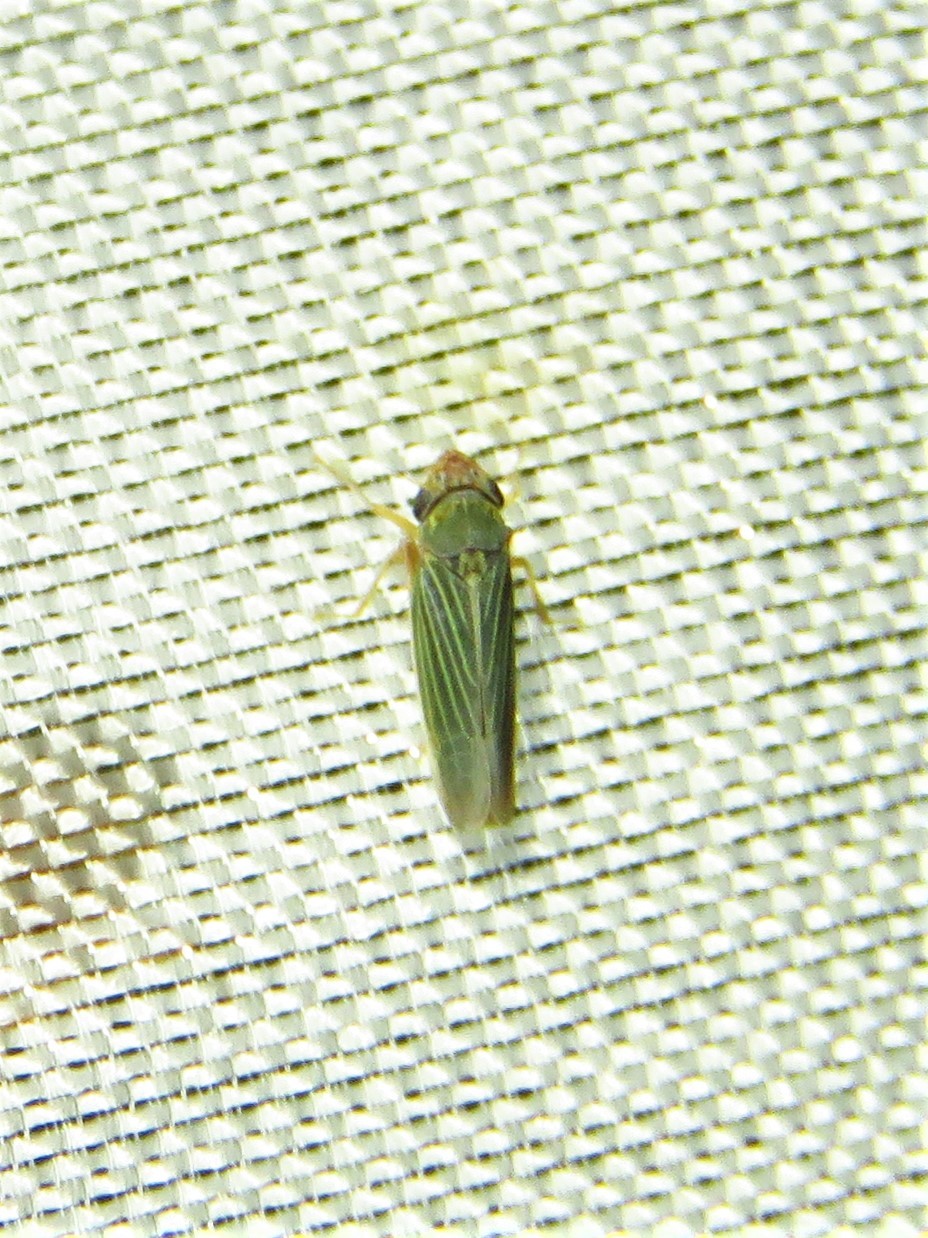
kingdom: Animalia
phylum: Arthropoda
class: Insecta
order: Hemiptera
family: Cicadellidae
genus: Xyphon
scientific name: Xyphon reticulatum
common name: Planthopper
